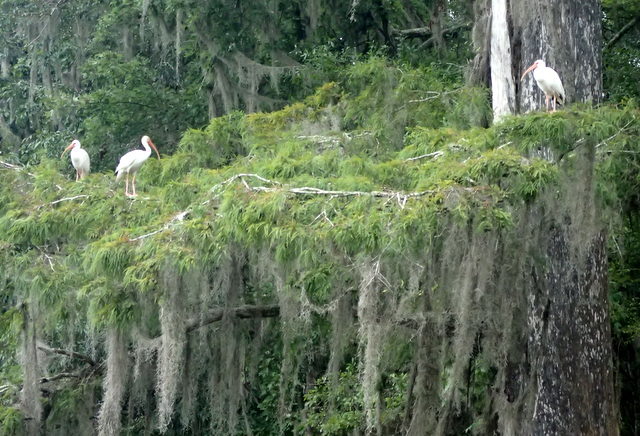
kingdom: Animalia
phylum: Chordata
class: Aves
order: Pelecaniformes
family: Threskiornithidae
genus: Eudocimus
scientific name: Eudocimus albus
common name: White ibis
